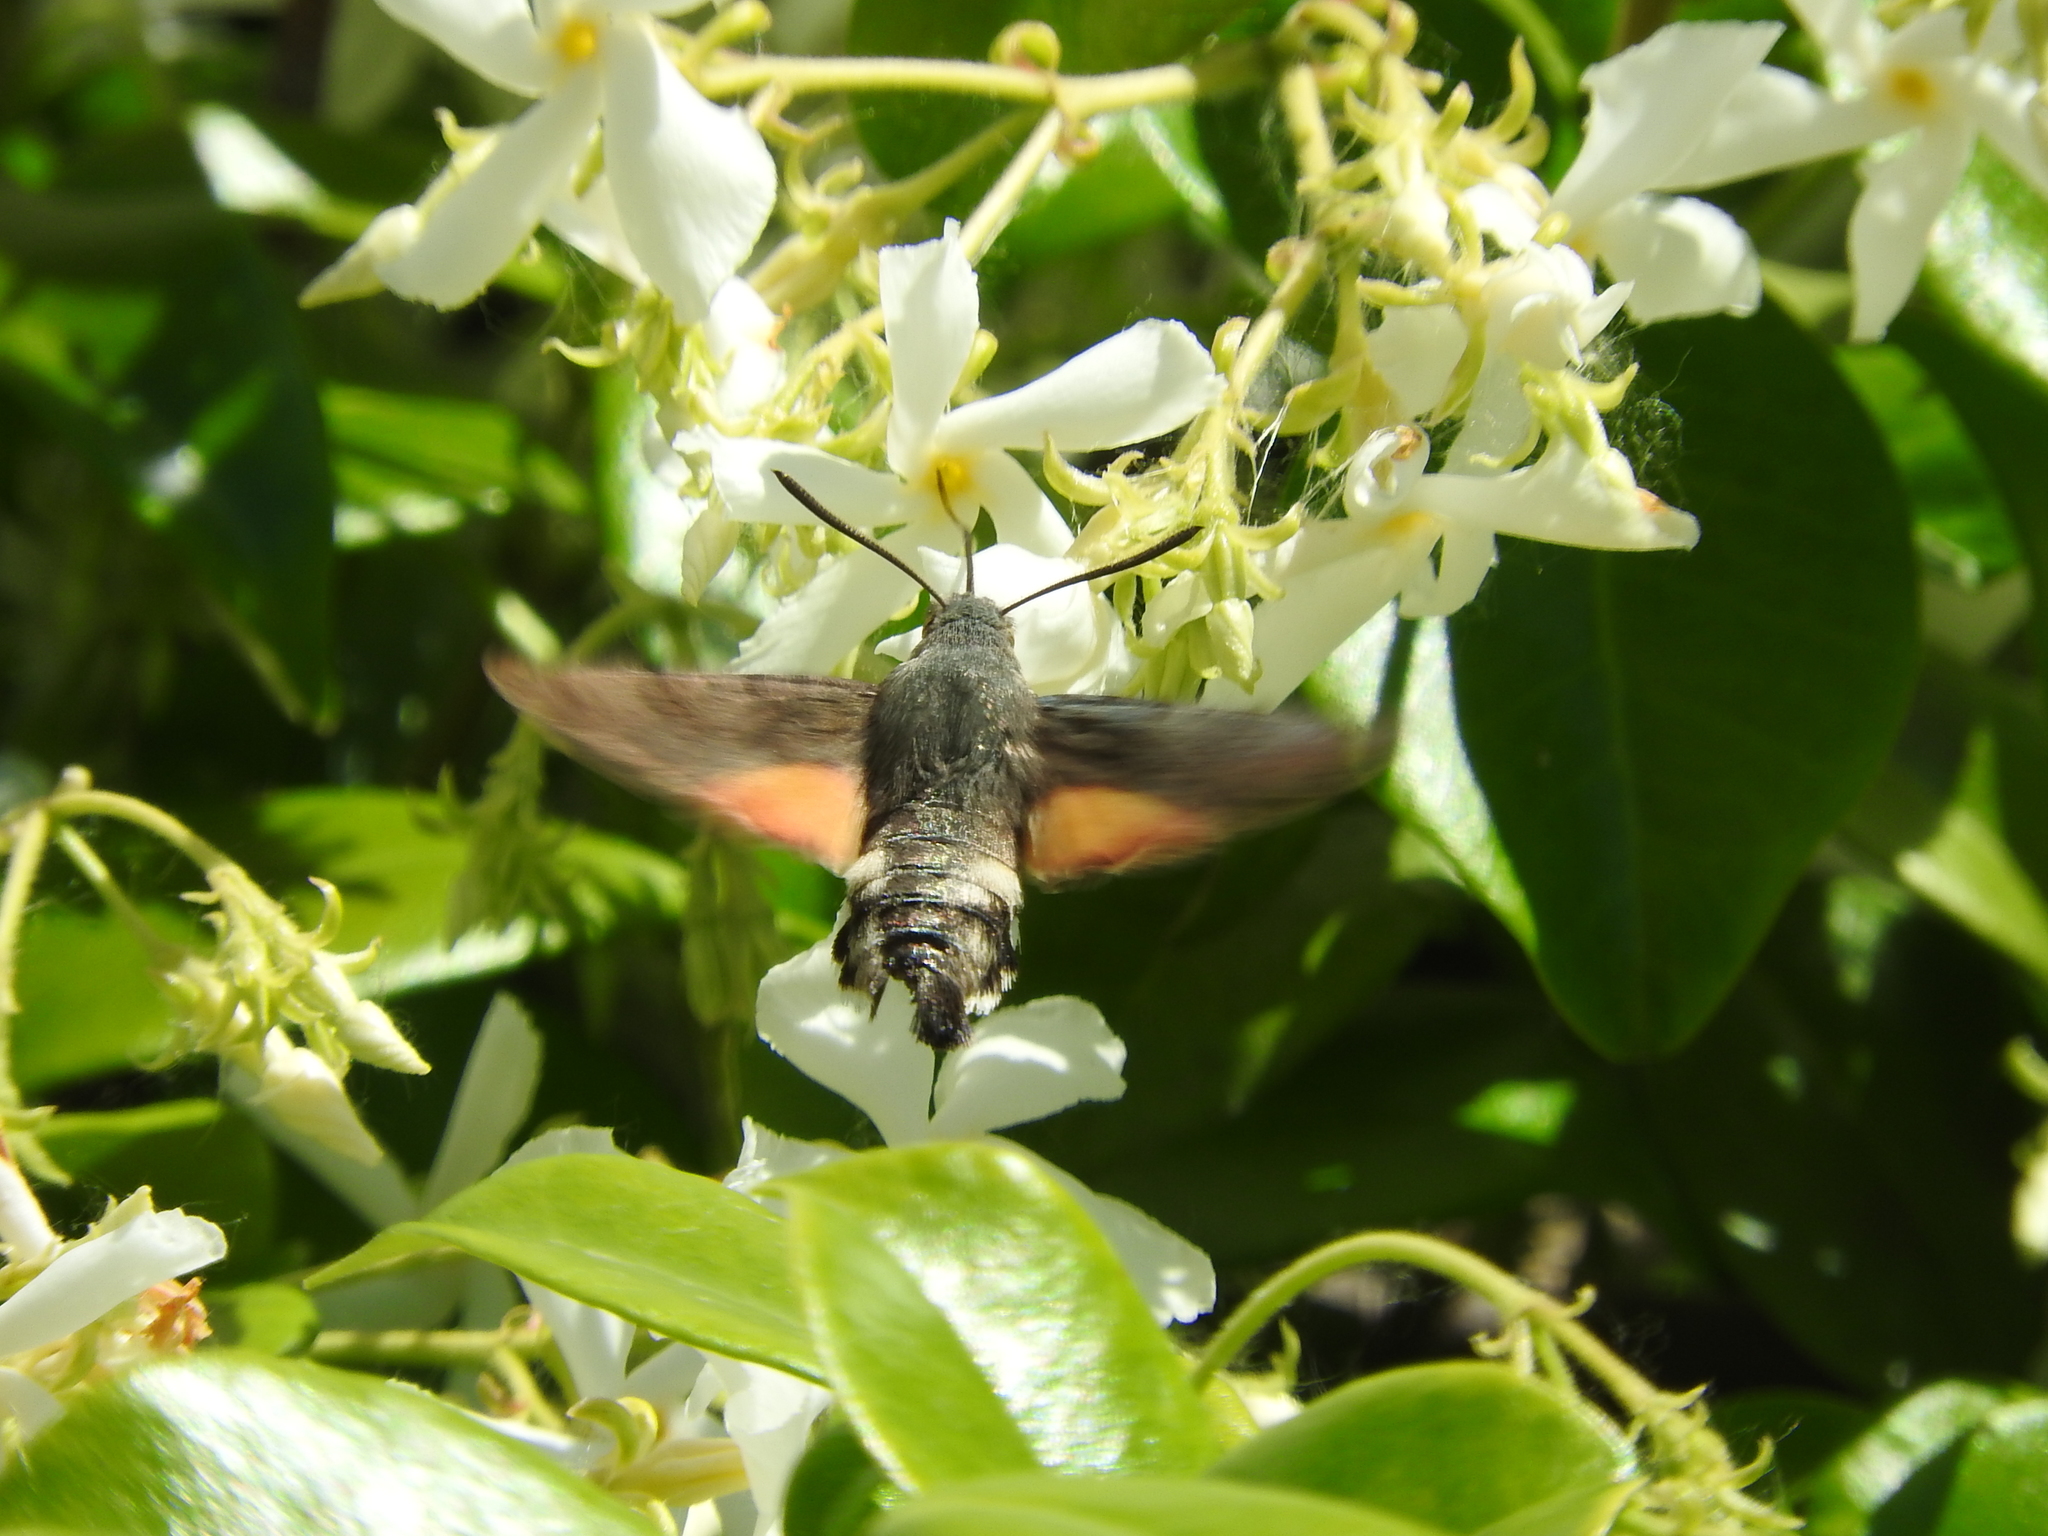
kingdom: Animalia
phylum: Arthropoda
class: Insecta
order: Lepidoptera
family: Sphingidae
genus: Macroglossum
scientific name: Macroglossum stellatarum
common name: Humming-bird hawk-moth
